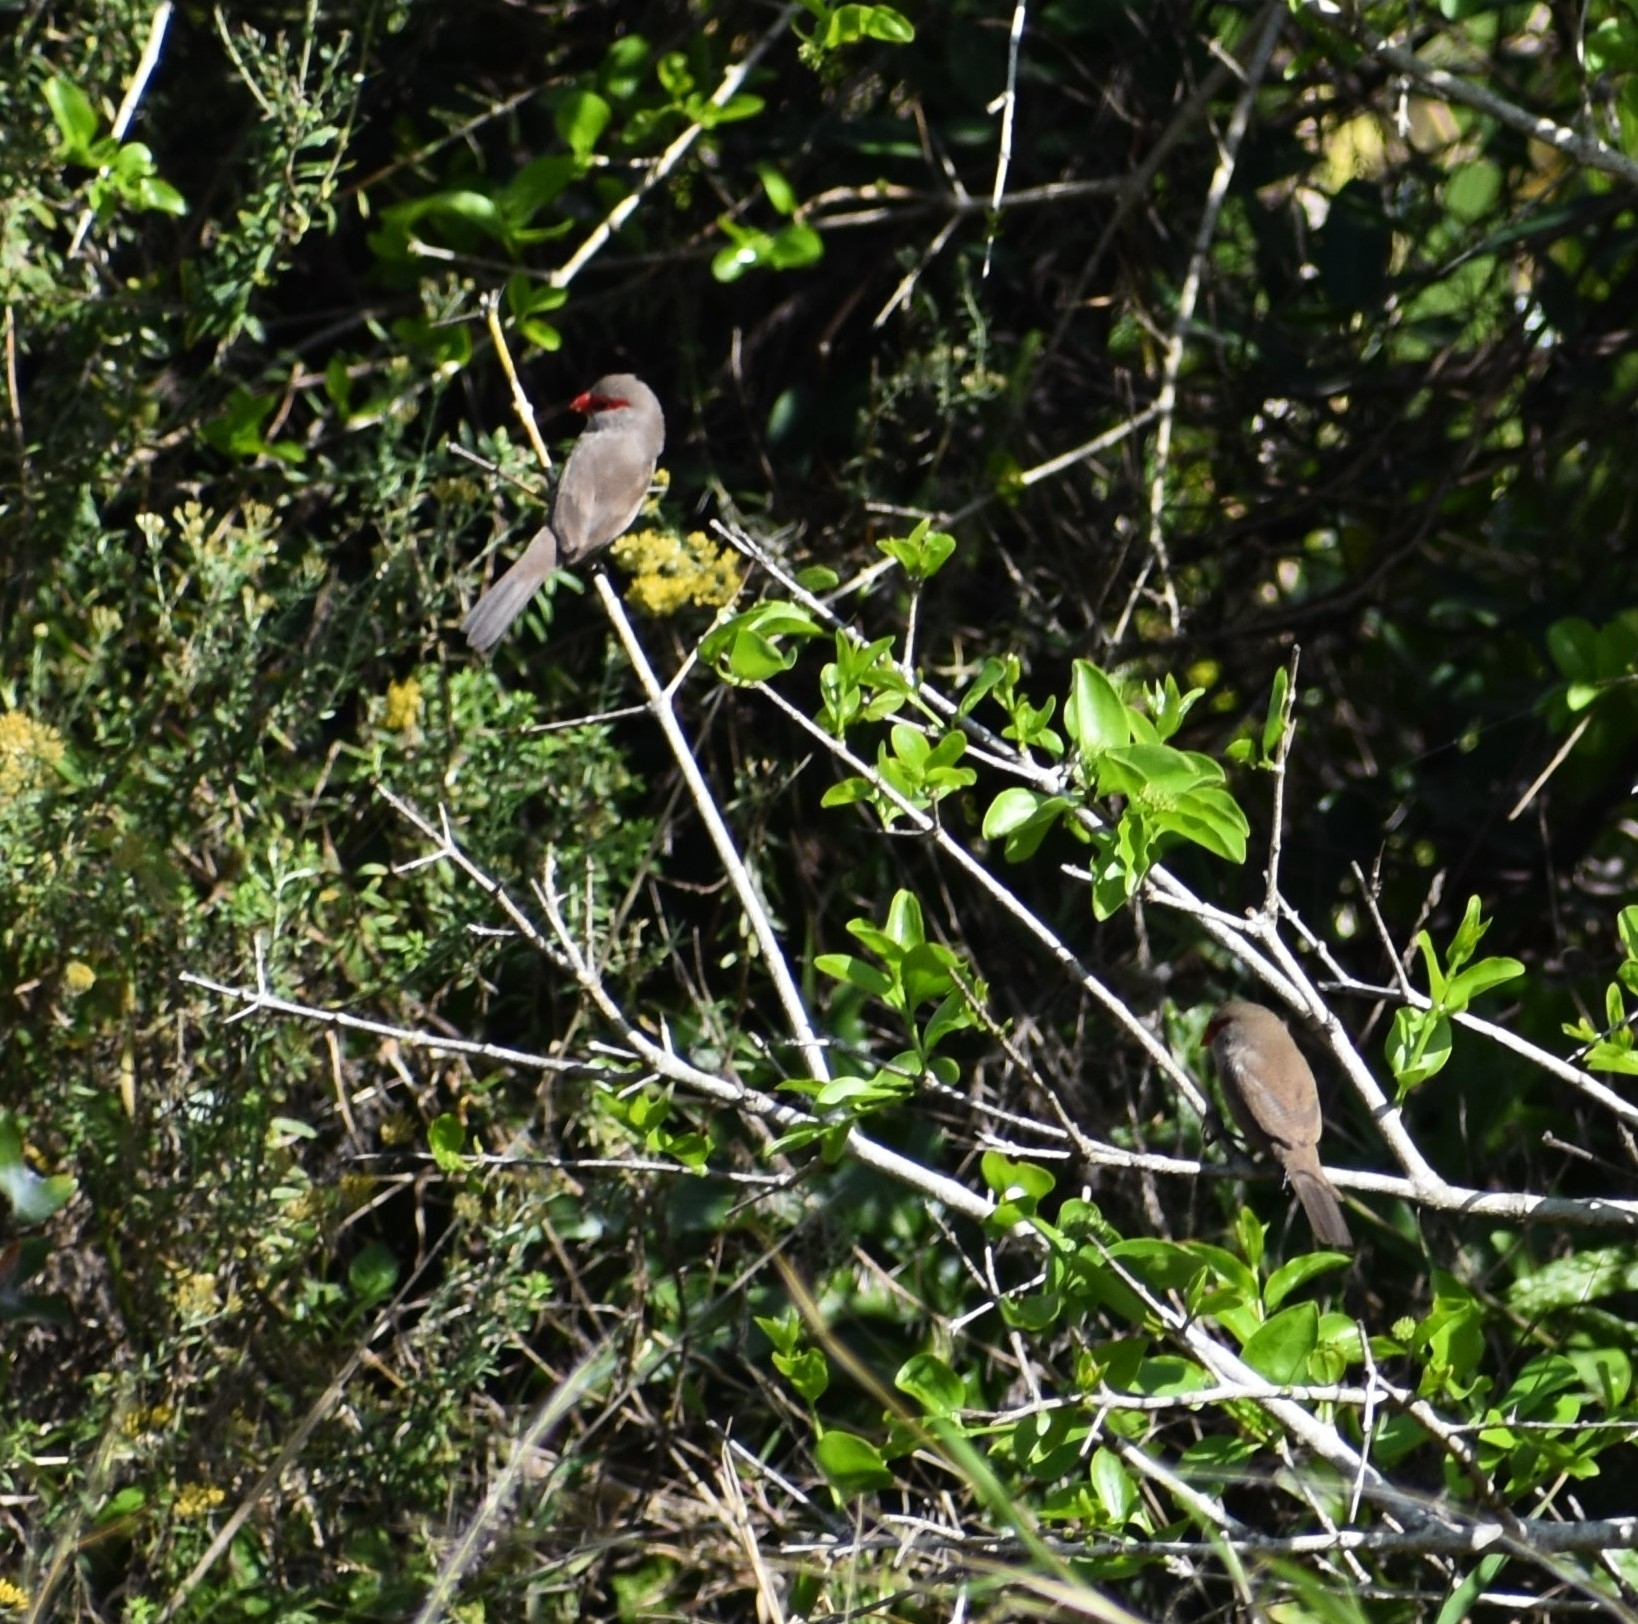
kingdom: Animalia
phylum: Chordata
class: Aves
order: Passeriformes
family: Estrildidae
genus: Estrilda
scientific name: Estrilda astrild
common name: Common waxbill
